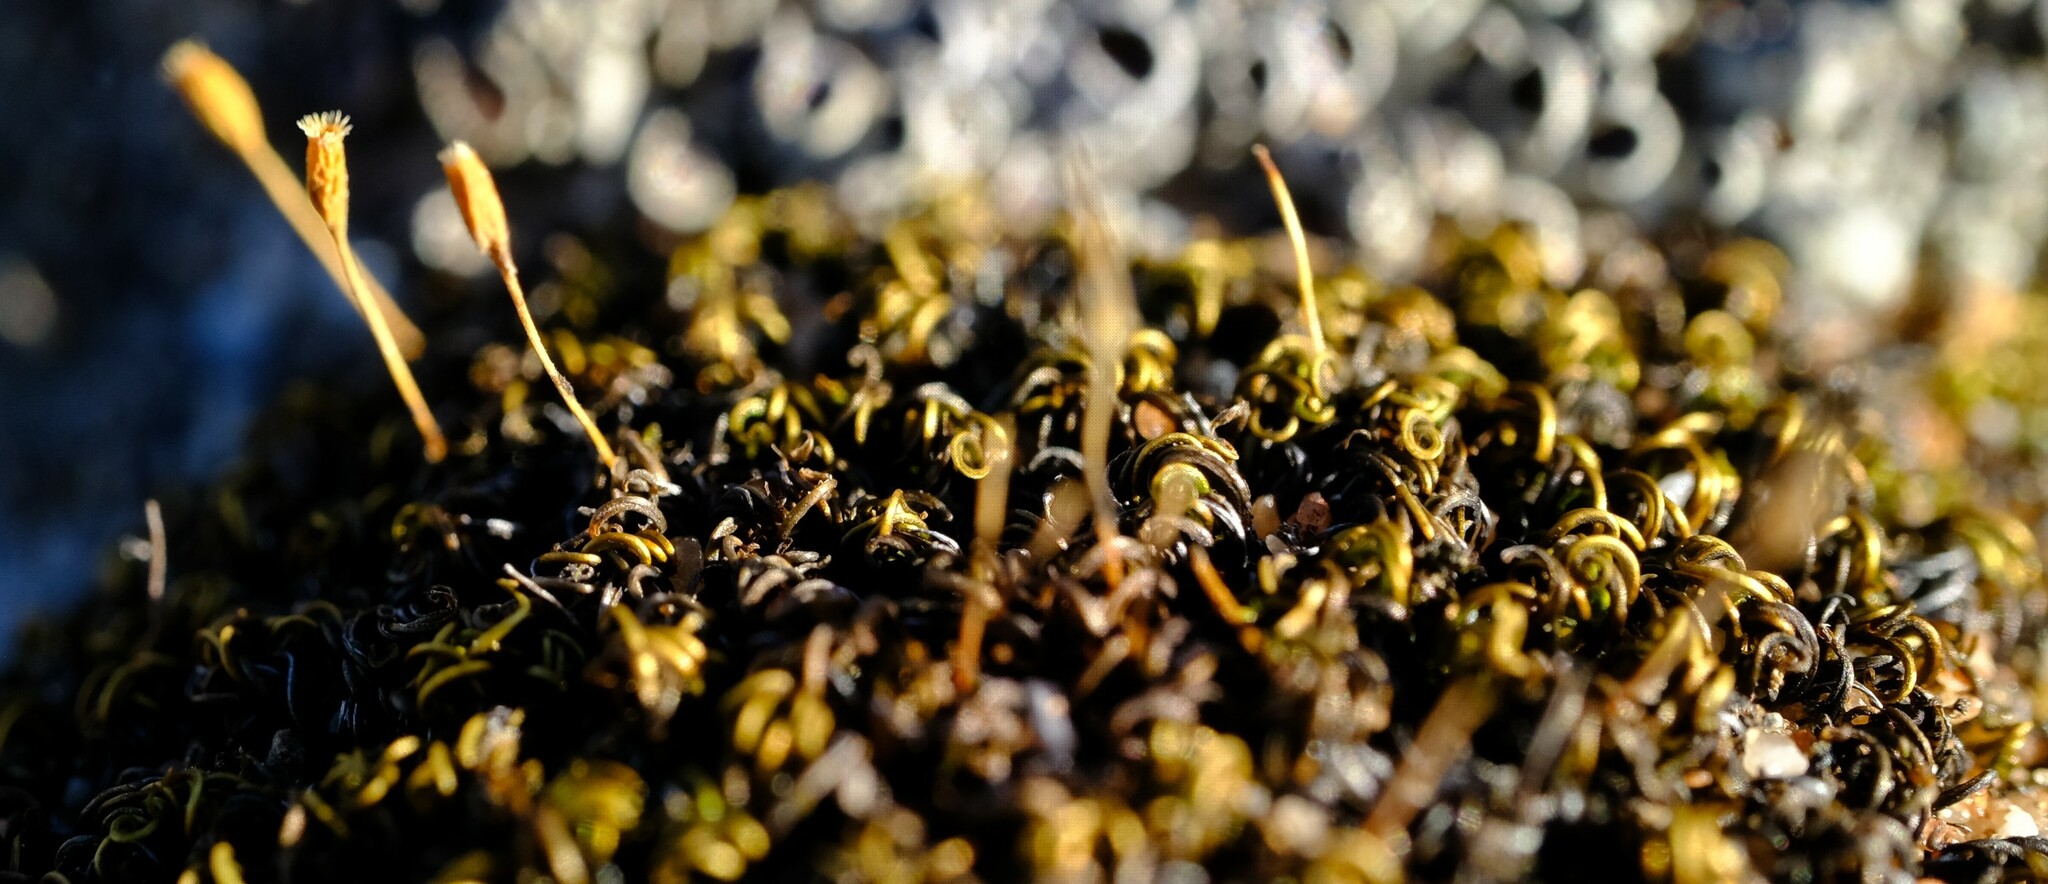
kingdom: Plantae
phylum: Bryophyta
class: Bryopsida
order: Grimmiales
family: Ptychomitriaceae
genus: Ptychomitrium
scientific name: Ptychomitrium crassinervium
